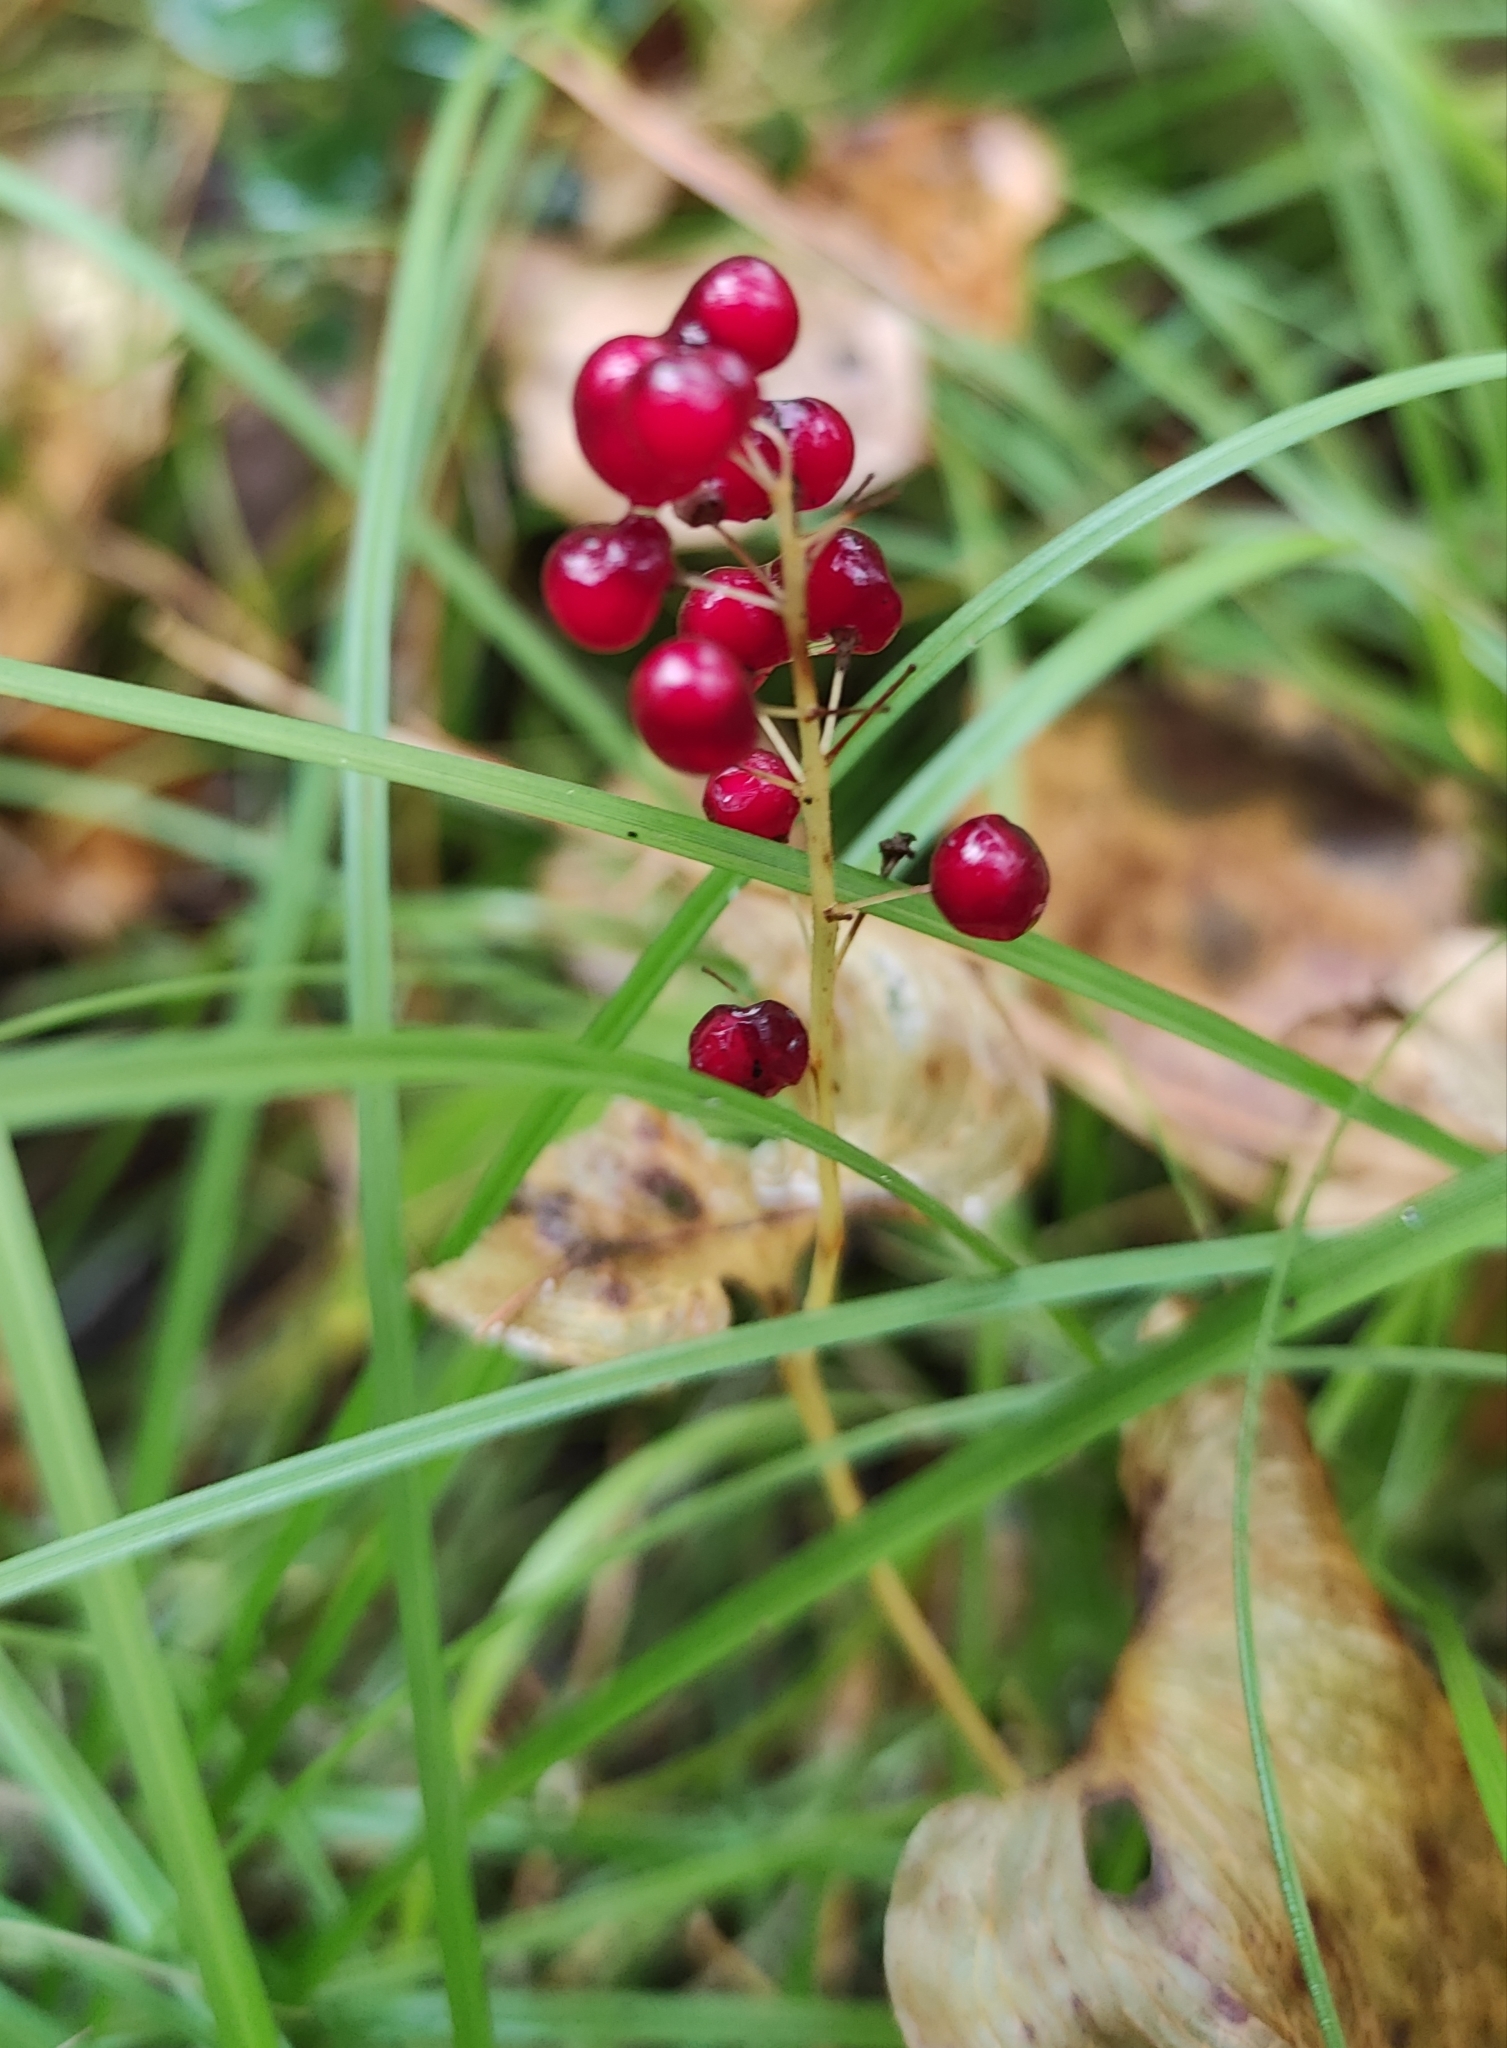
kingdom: Plantae
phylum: Tracheophyta
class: Liliopsida
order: Asparagales
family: Asparagaceae
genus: Maianthemum
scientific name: Maianthemum bifolium
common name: May lily
